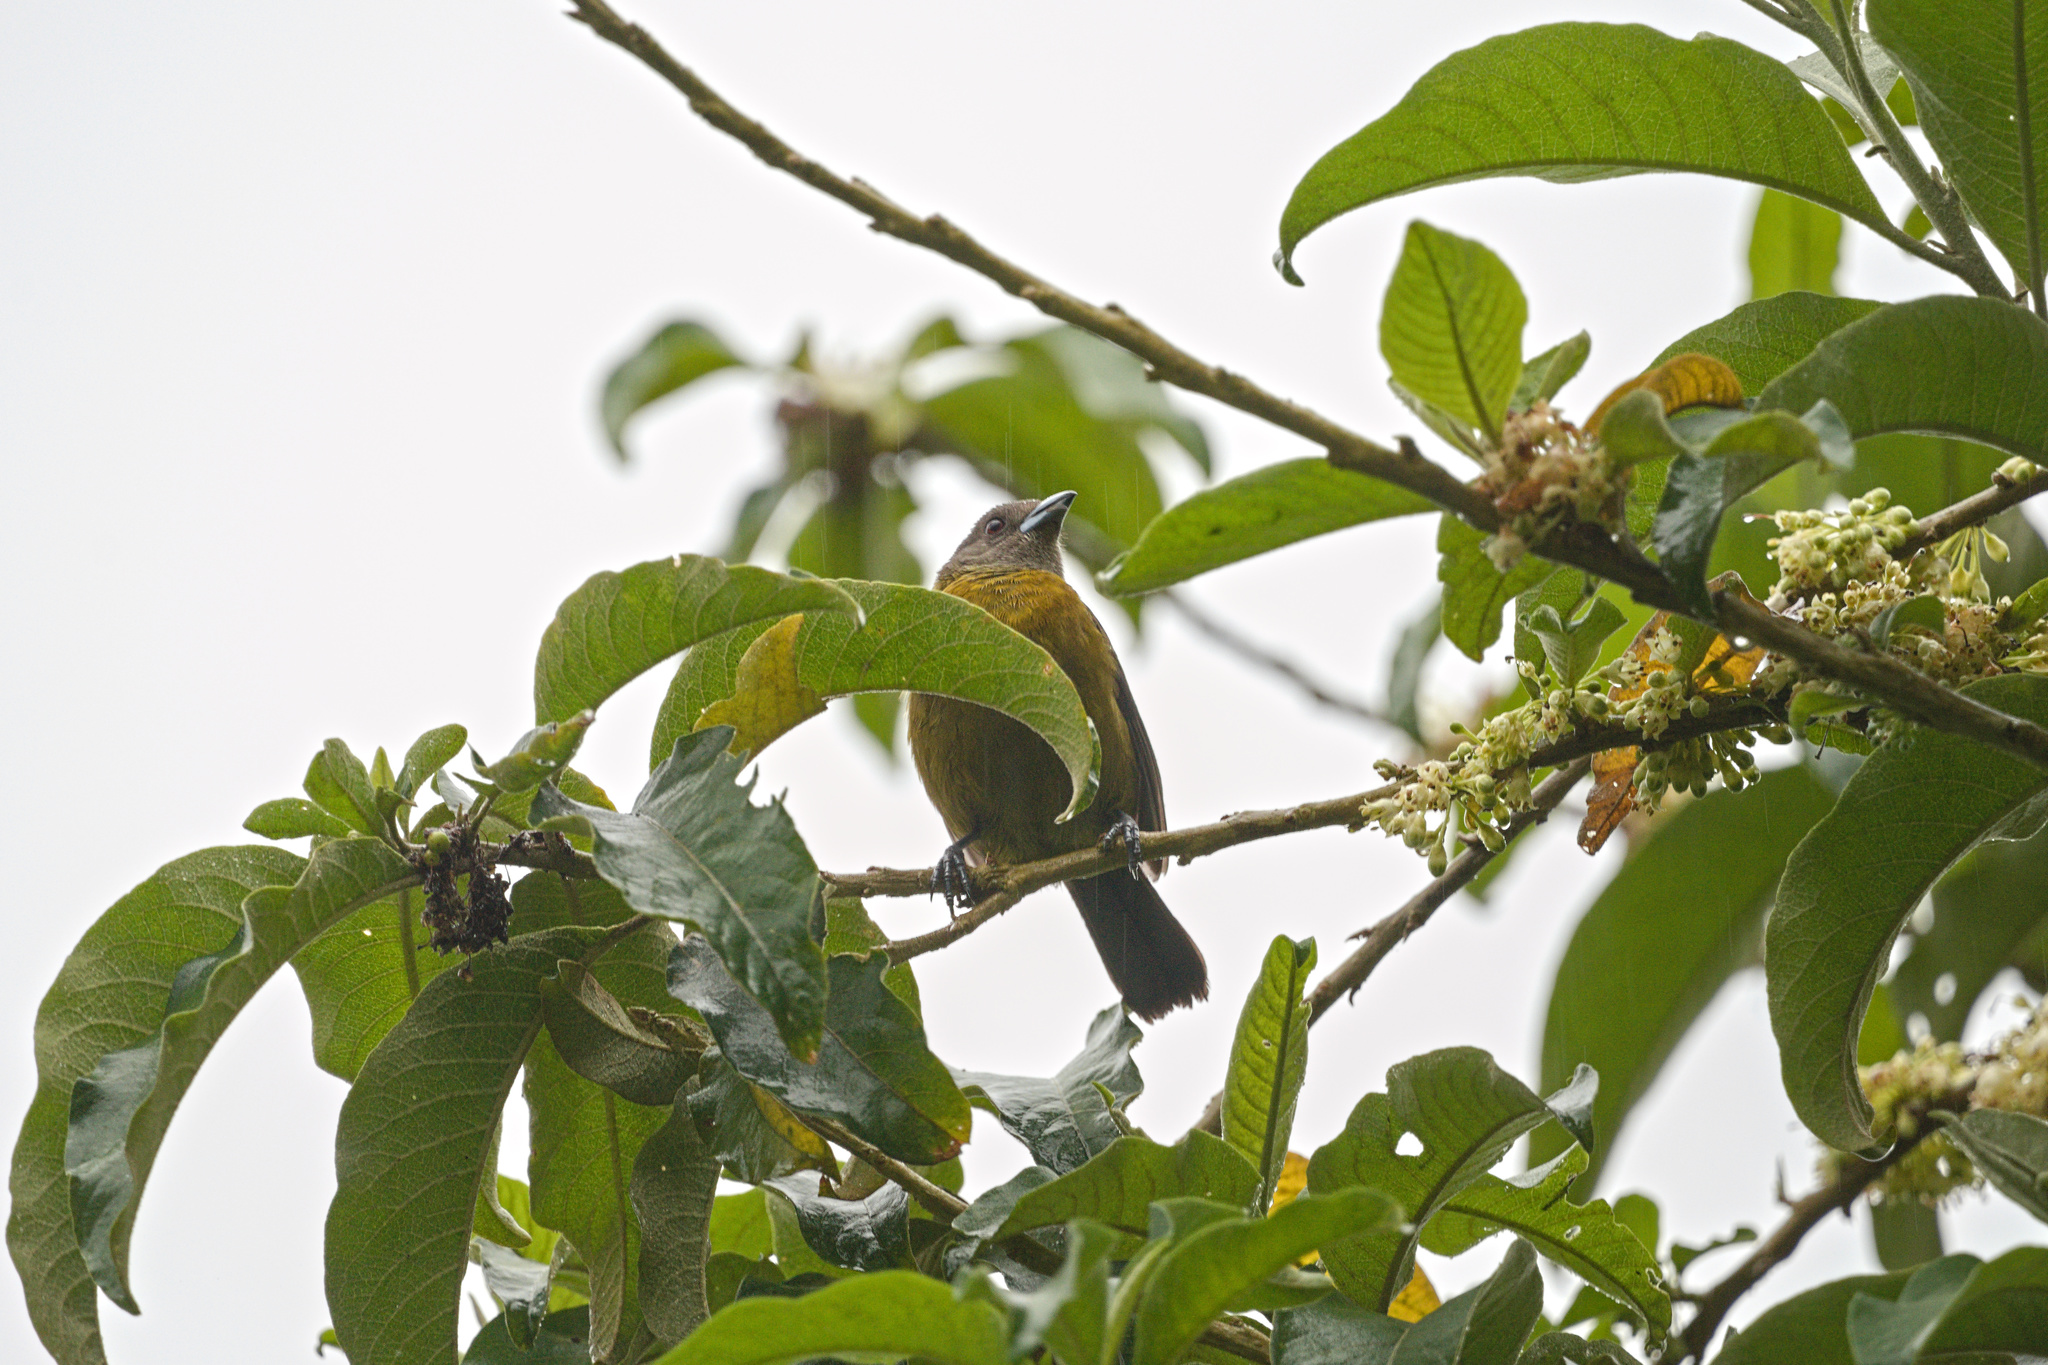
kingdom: Animalia
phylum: Chordata
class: Aves
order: Passeriformes
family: Thraupidae
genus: Ramphocelus
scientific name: Ramphocelus passerinii
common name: Passerini's tanager
